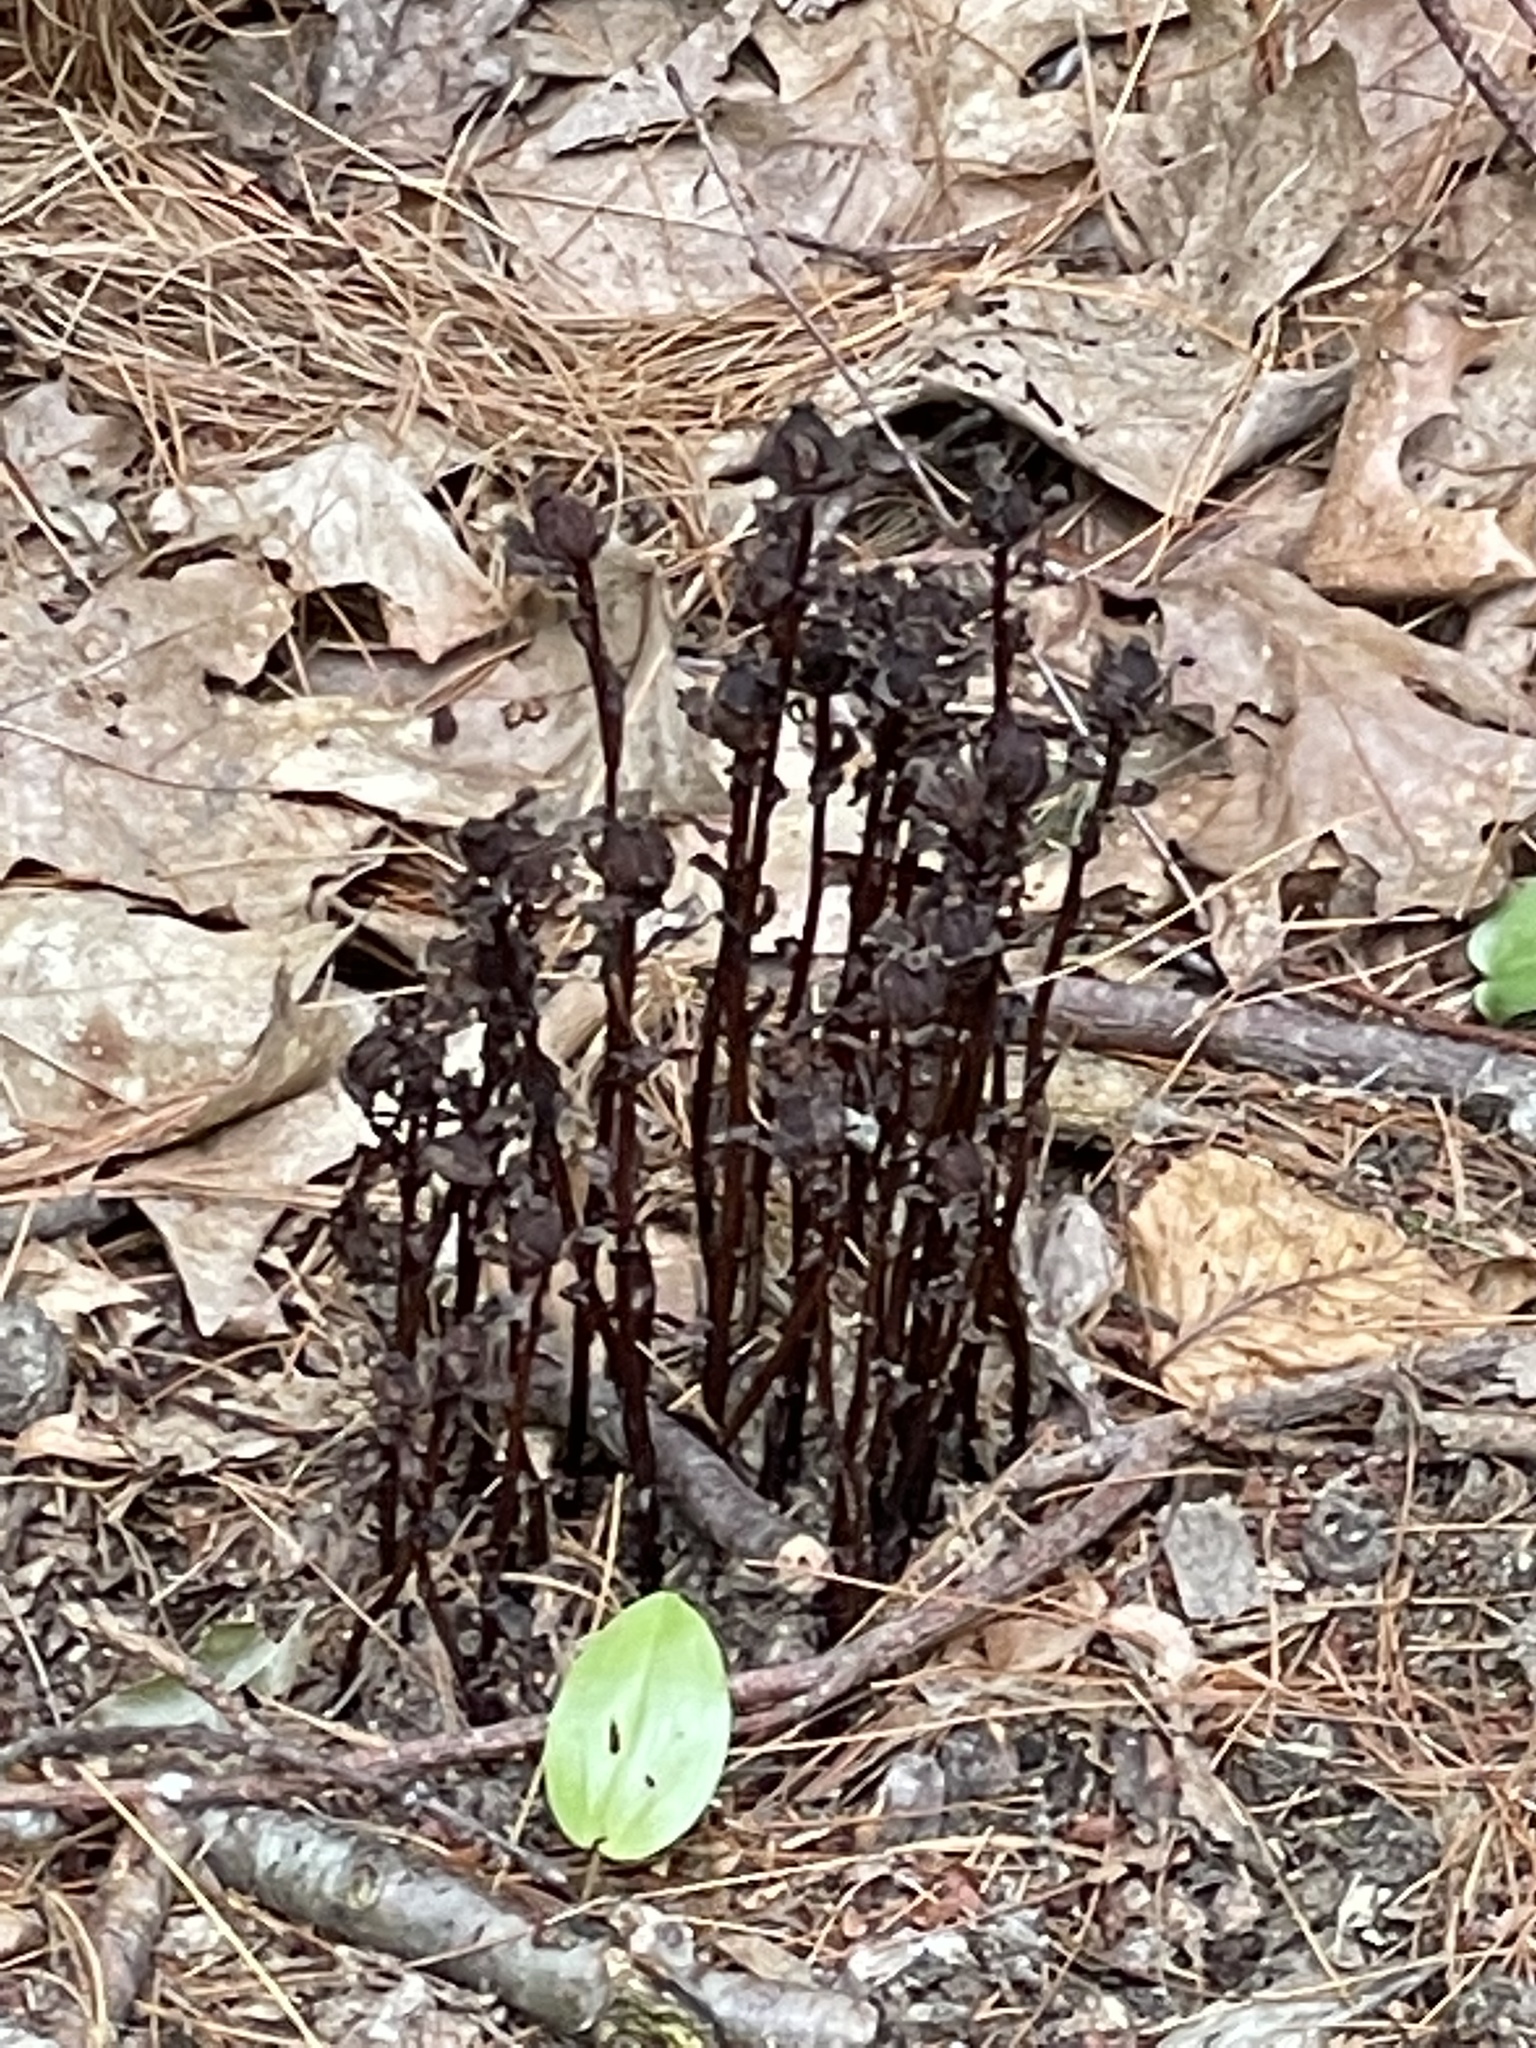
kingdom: Plantae
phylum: Tracheophyta
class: Magnoliopsida
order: Ericales
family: Ericaceae
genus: Monotropa
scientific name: Monotropa uniflora
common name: Convulsion root
